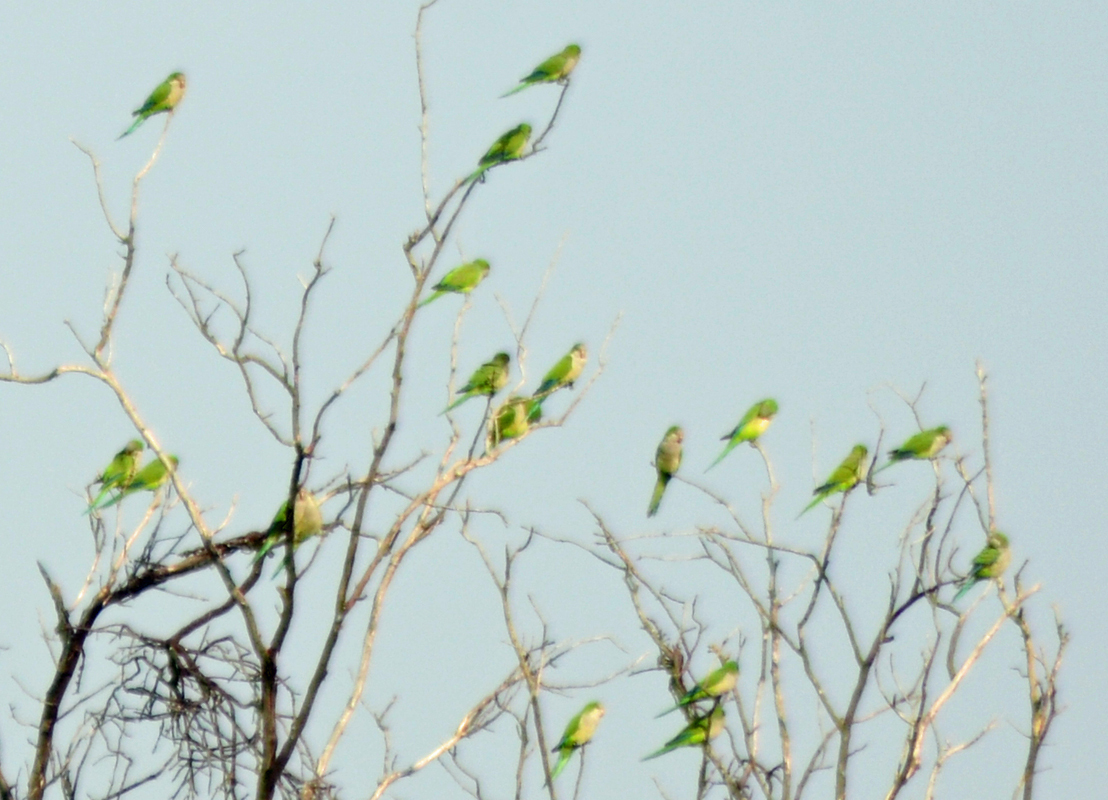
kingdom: Animalia
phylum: Chordata
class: Aves
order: Psittaciformes
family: Psittacidae
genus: Myiopsitta
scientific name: Myiopsitta monachus
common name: Monk parakeet
